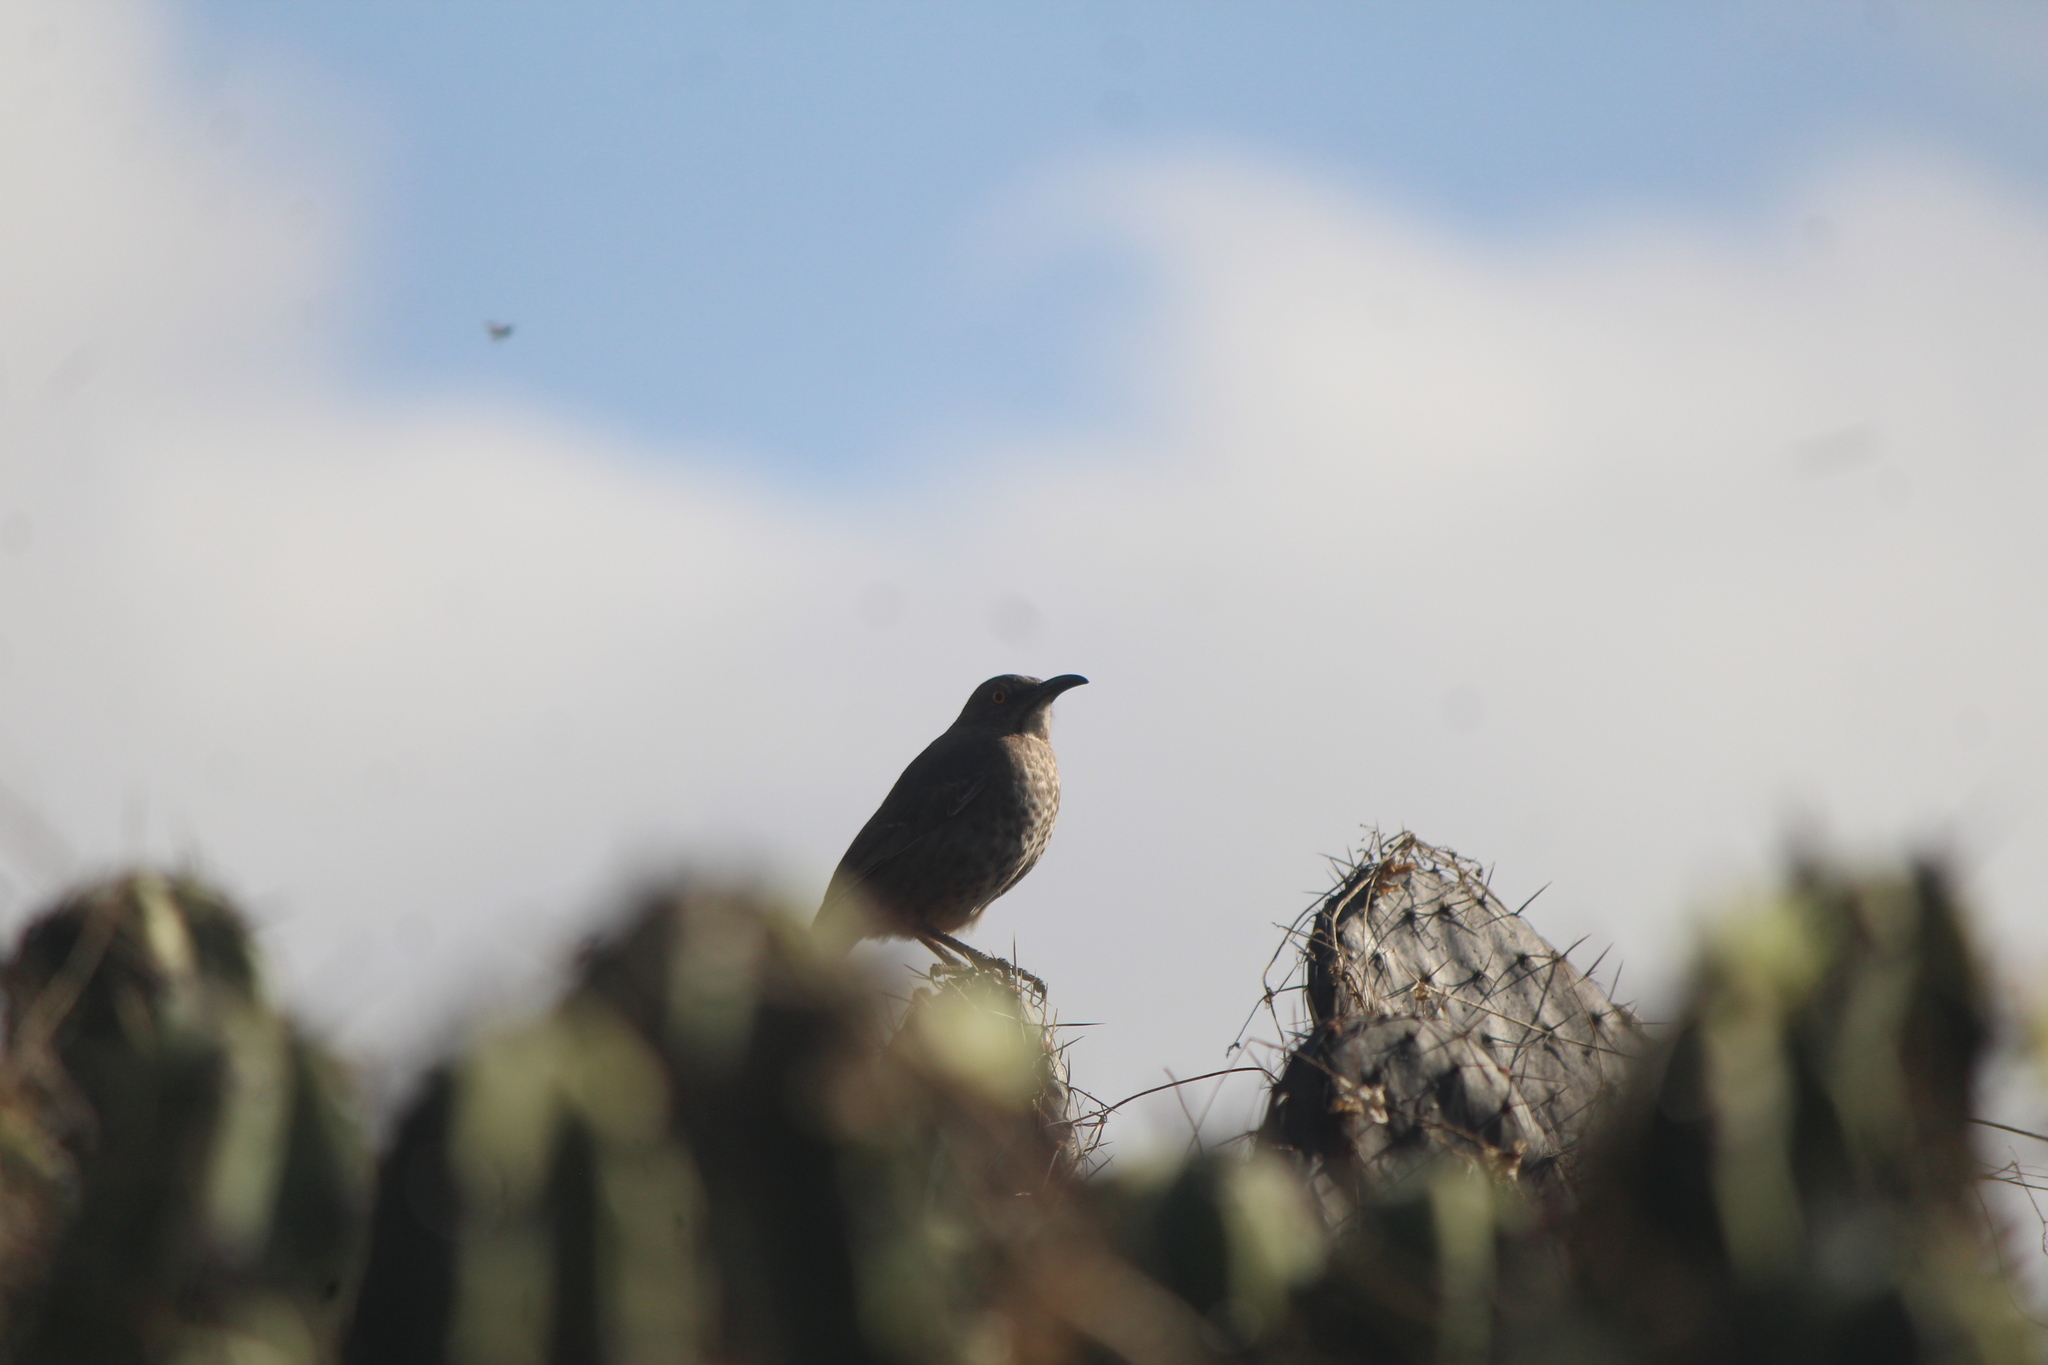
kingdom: Animalia
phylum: Chordata
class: Aves
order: Passeriformes
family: Mimidae
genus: Toxostoma
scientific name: Toxostoma curvirostre
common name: Curve-billed thrasher
